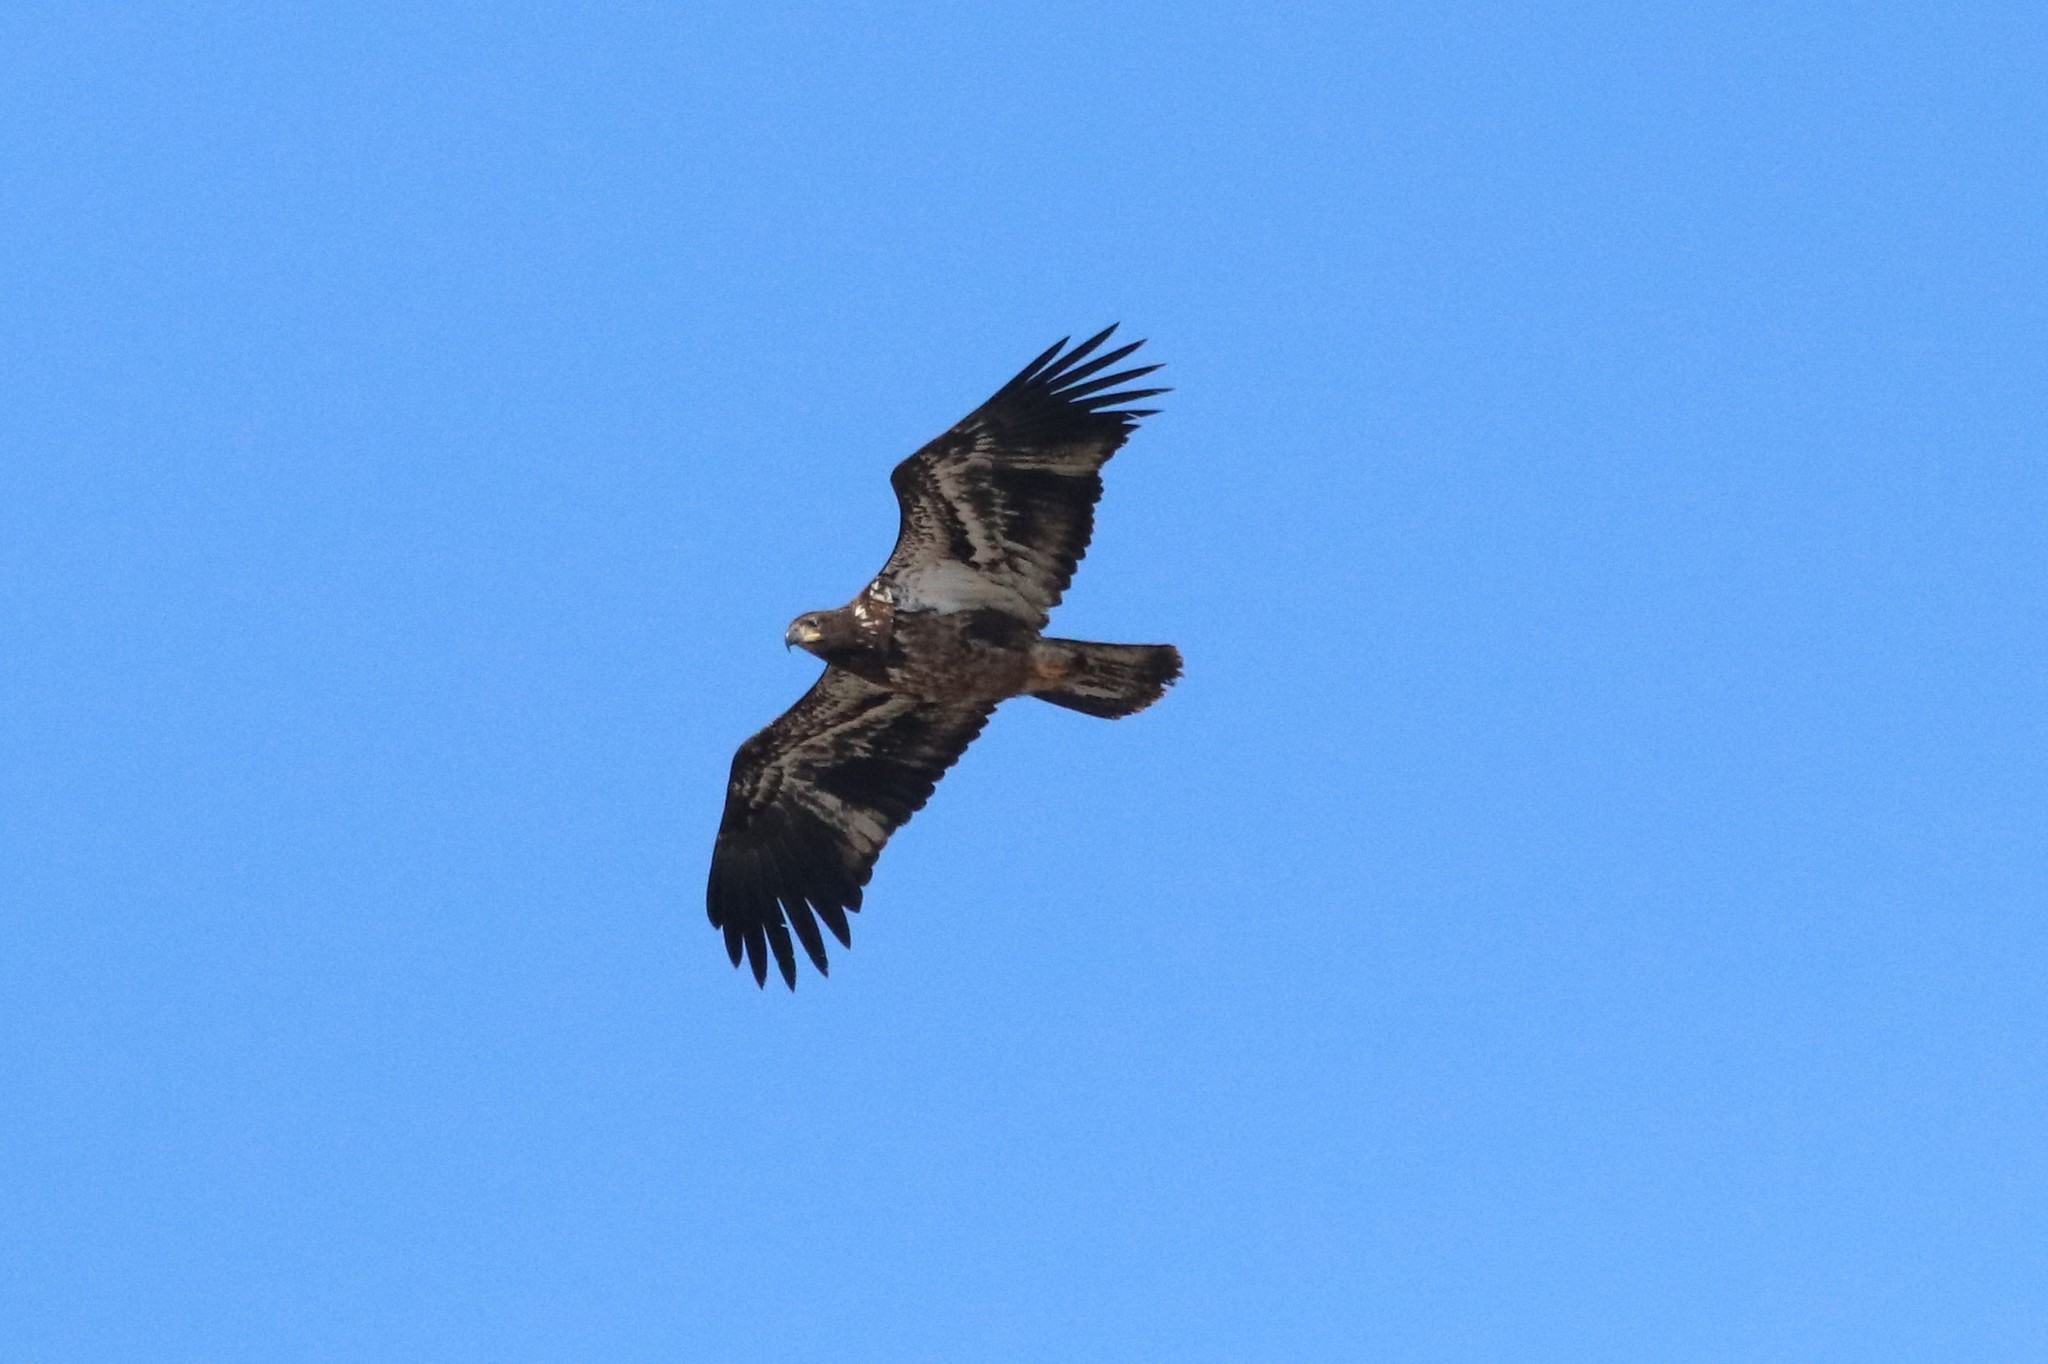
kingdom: Animalia
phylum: Chordata
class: Aves
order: Accipitriformes
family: Accipitridae
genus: Haliaeetus
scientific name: Haliaeetus leucocephalus
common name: Bald eagle
